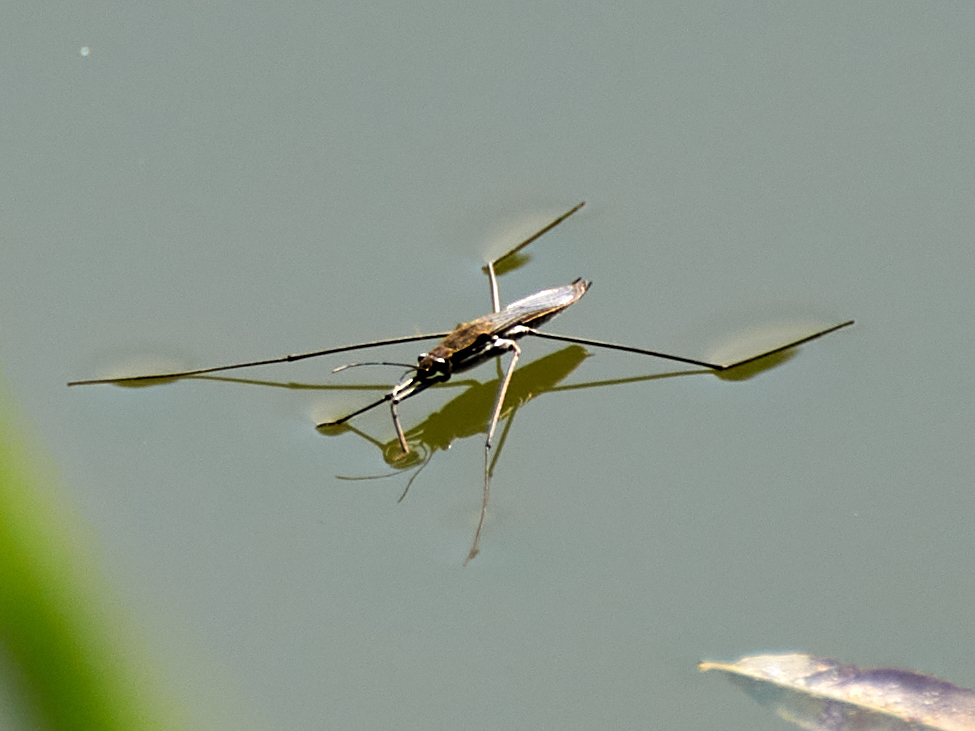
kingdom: Animalia
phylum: Arthropoda
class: Insecta
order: Hemiptera
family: Gerridae
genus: Aquarius
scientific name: Aquarius paludum
